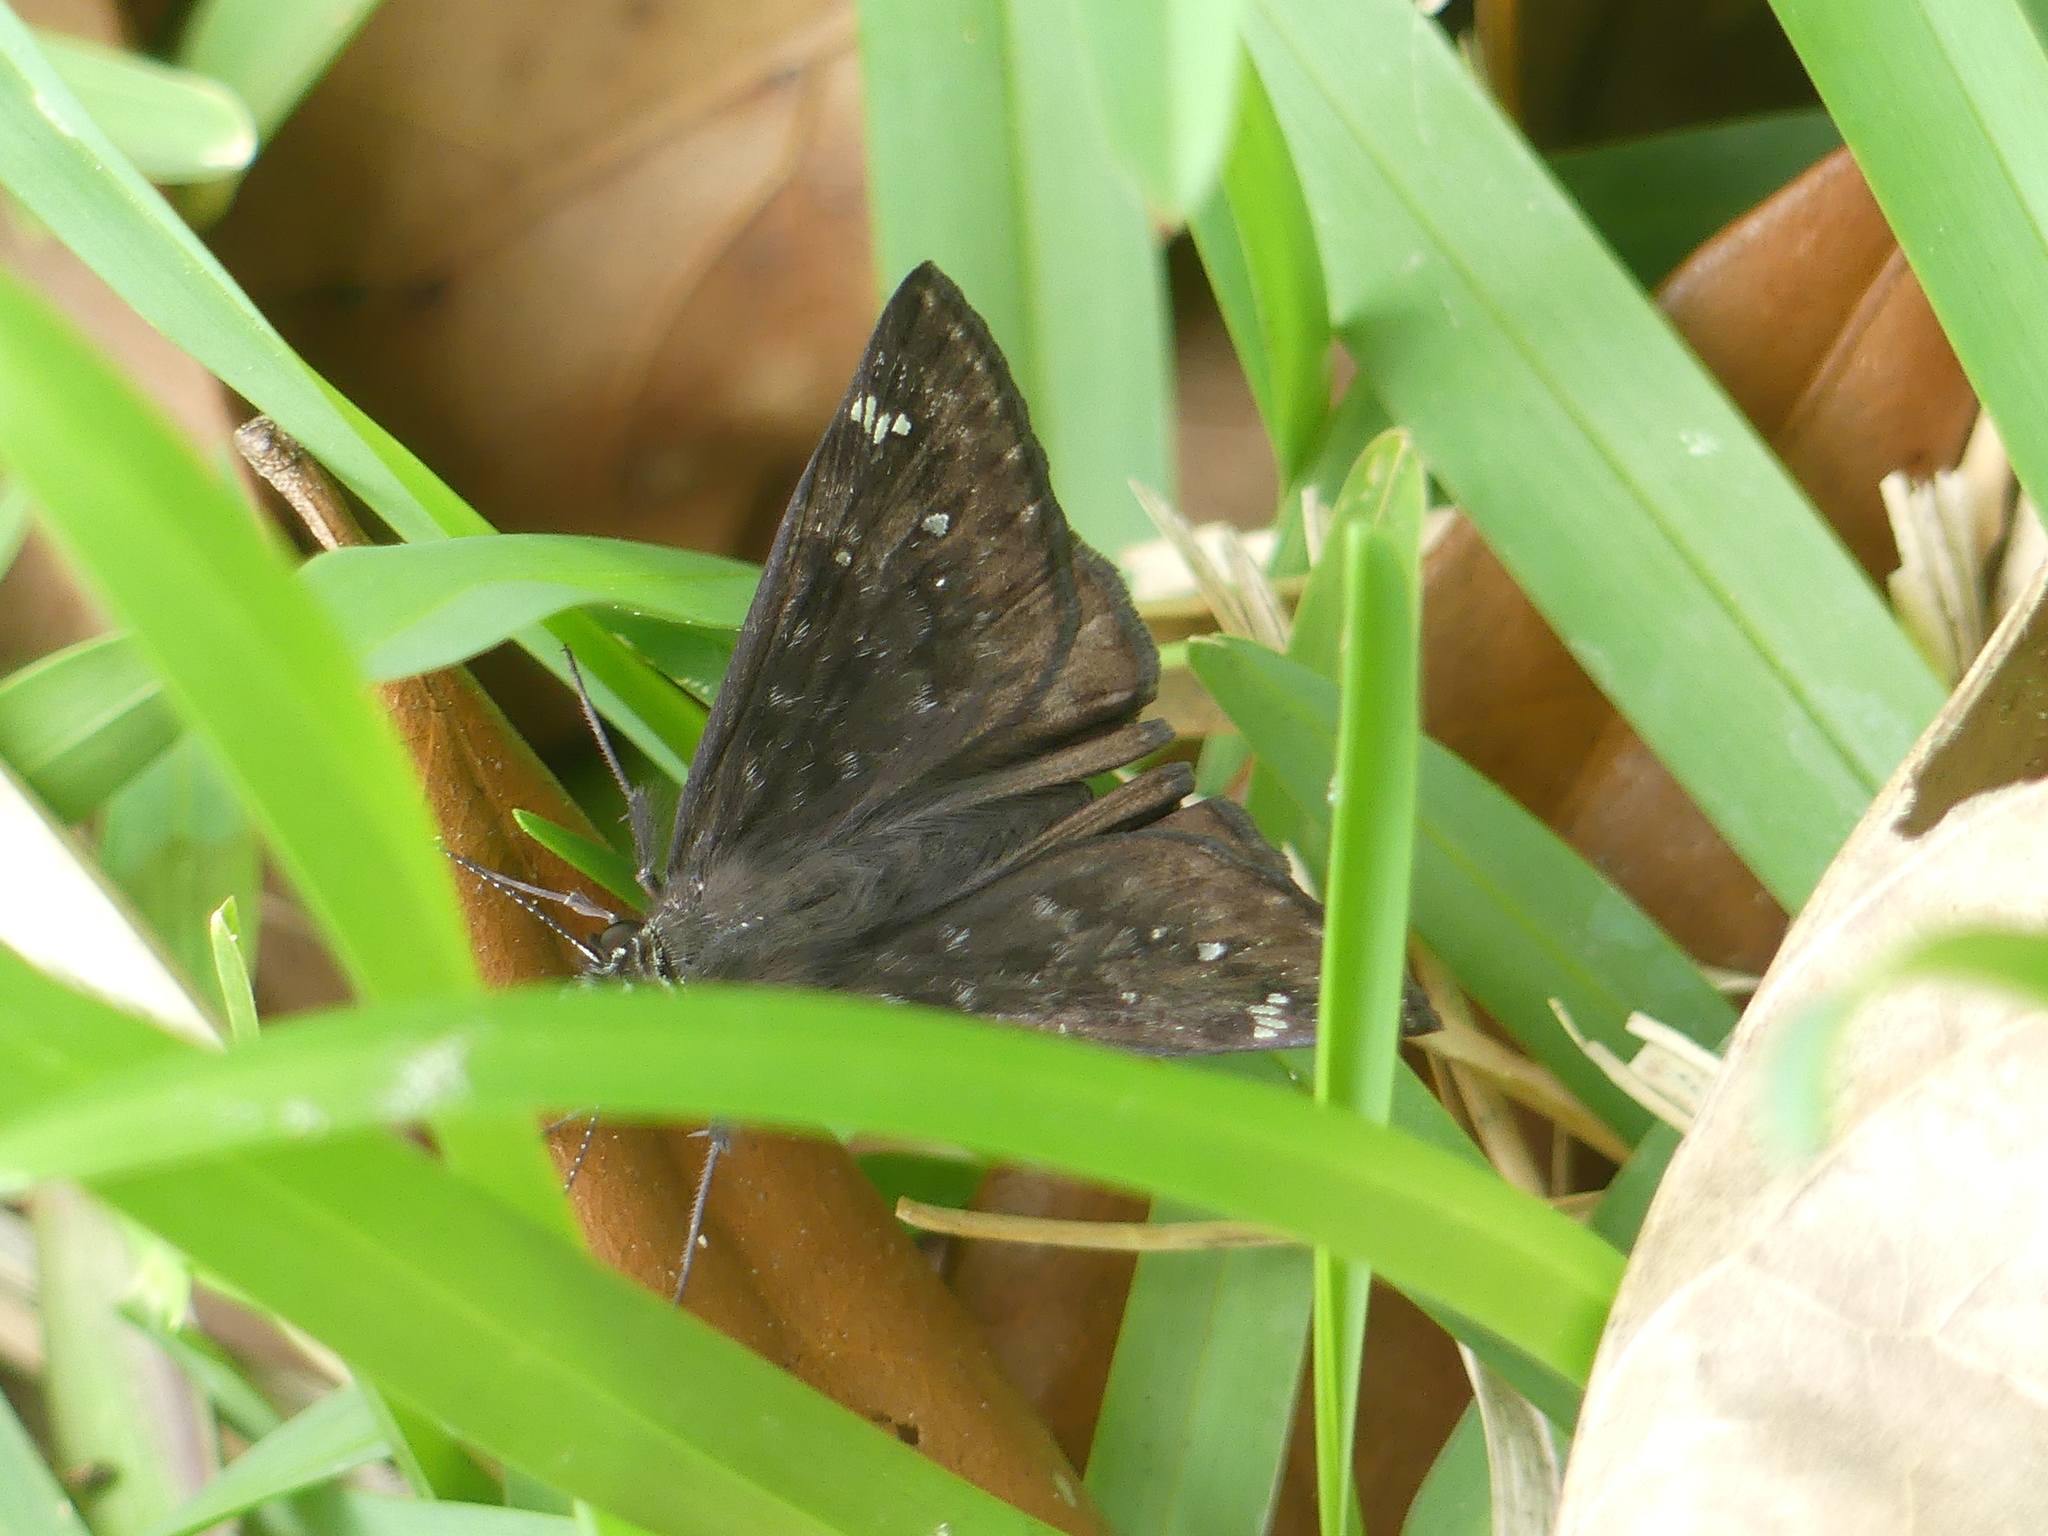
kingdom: Animalia
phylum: Arthropoda
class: Insecta
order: Lepidoptera
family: Hesperiidae
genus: Erynnis
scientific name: Erynnis horatius
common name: Horace's duskywing
